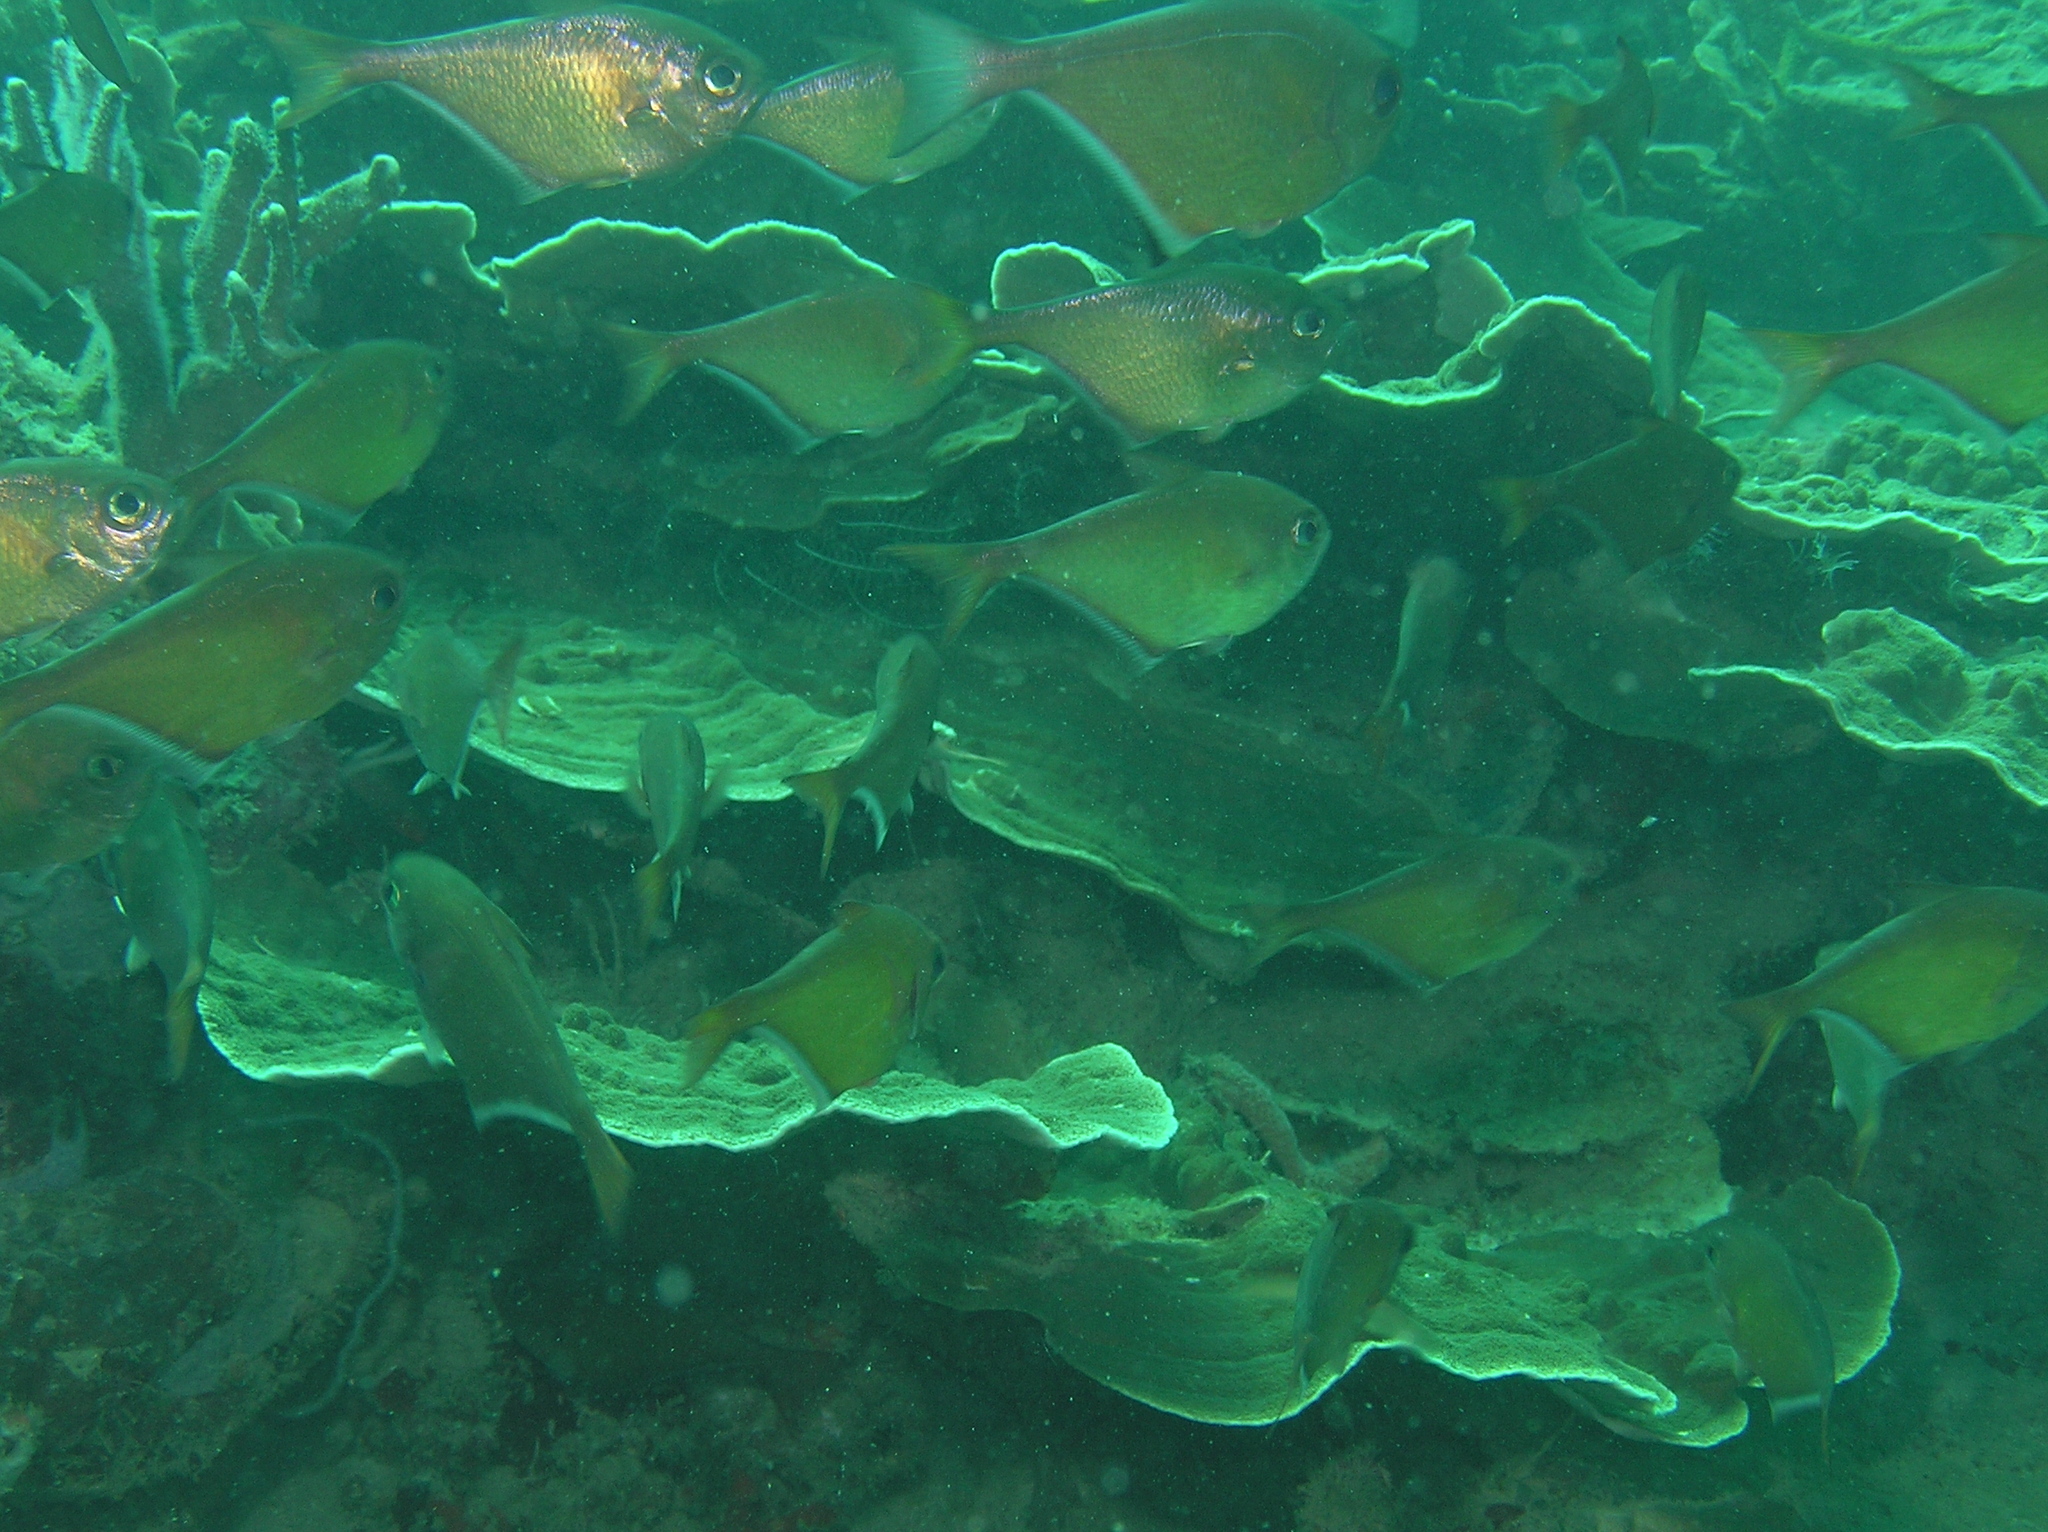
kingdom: Animalia
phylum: Chordata
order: Perciformes
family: Pempheridae
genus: Pempheris
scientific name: Pempheris adusta
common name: Curved bullseye
